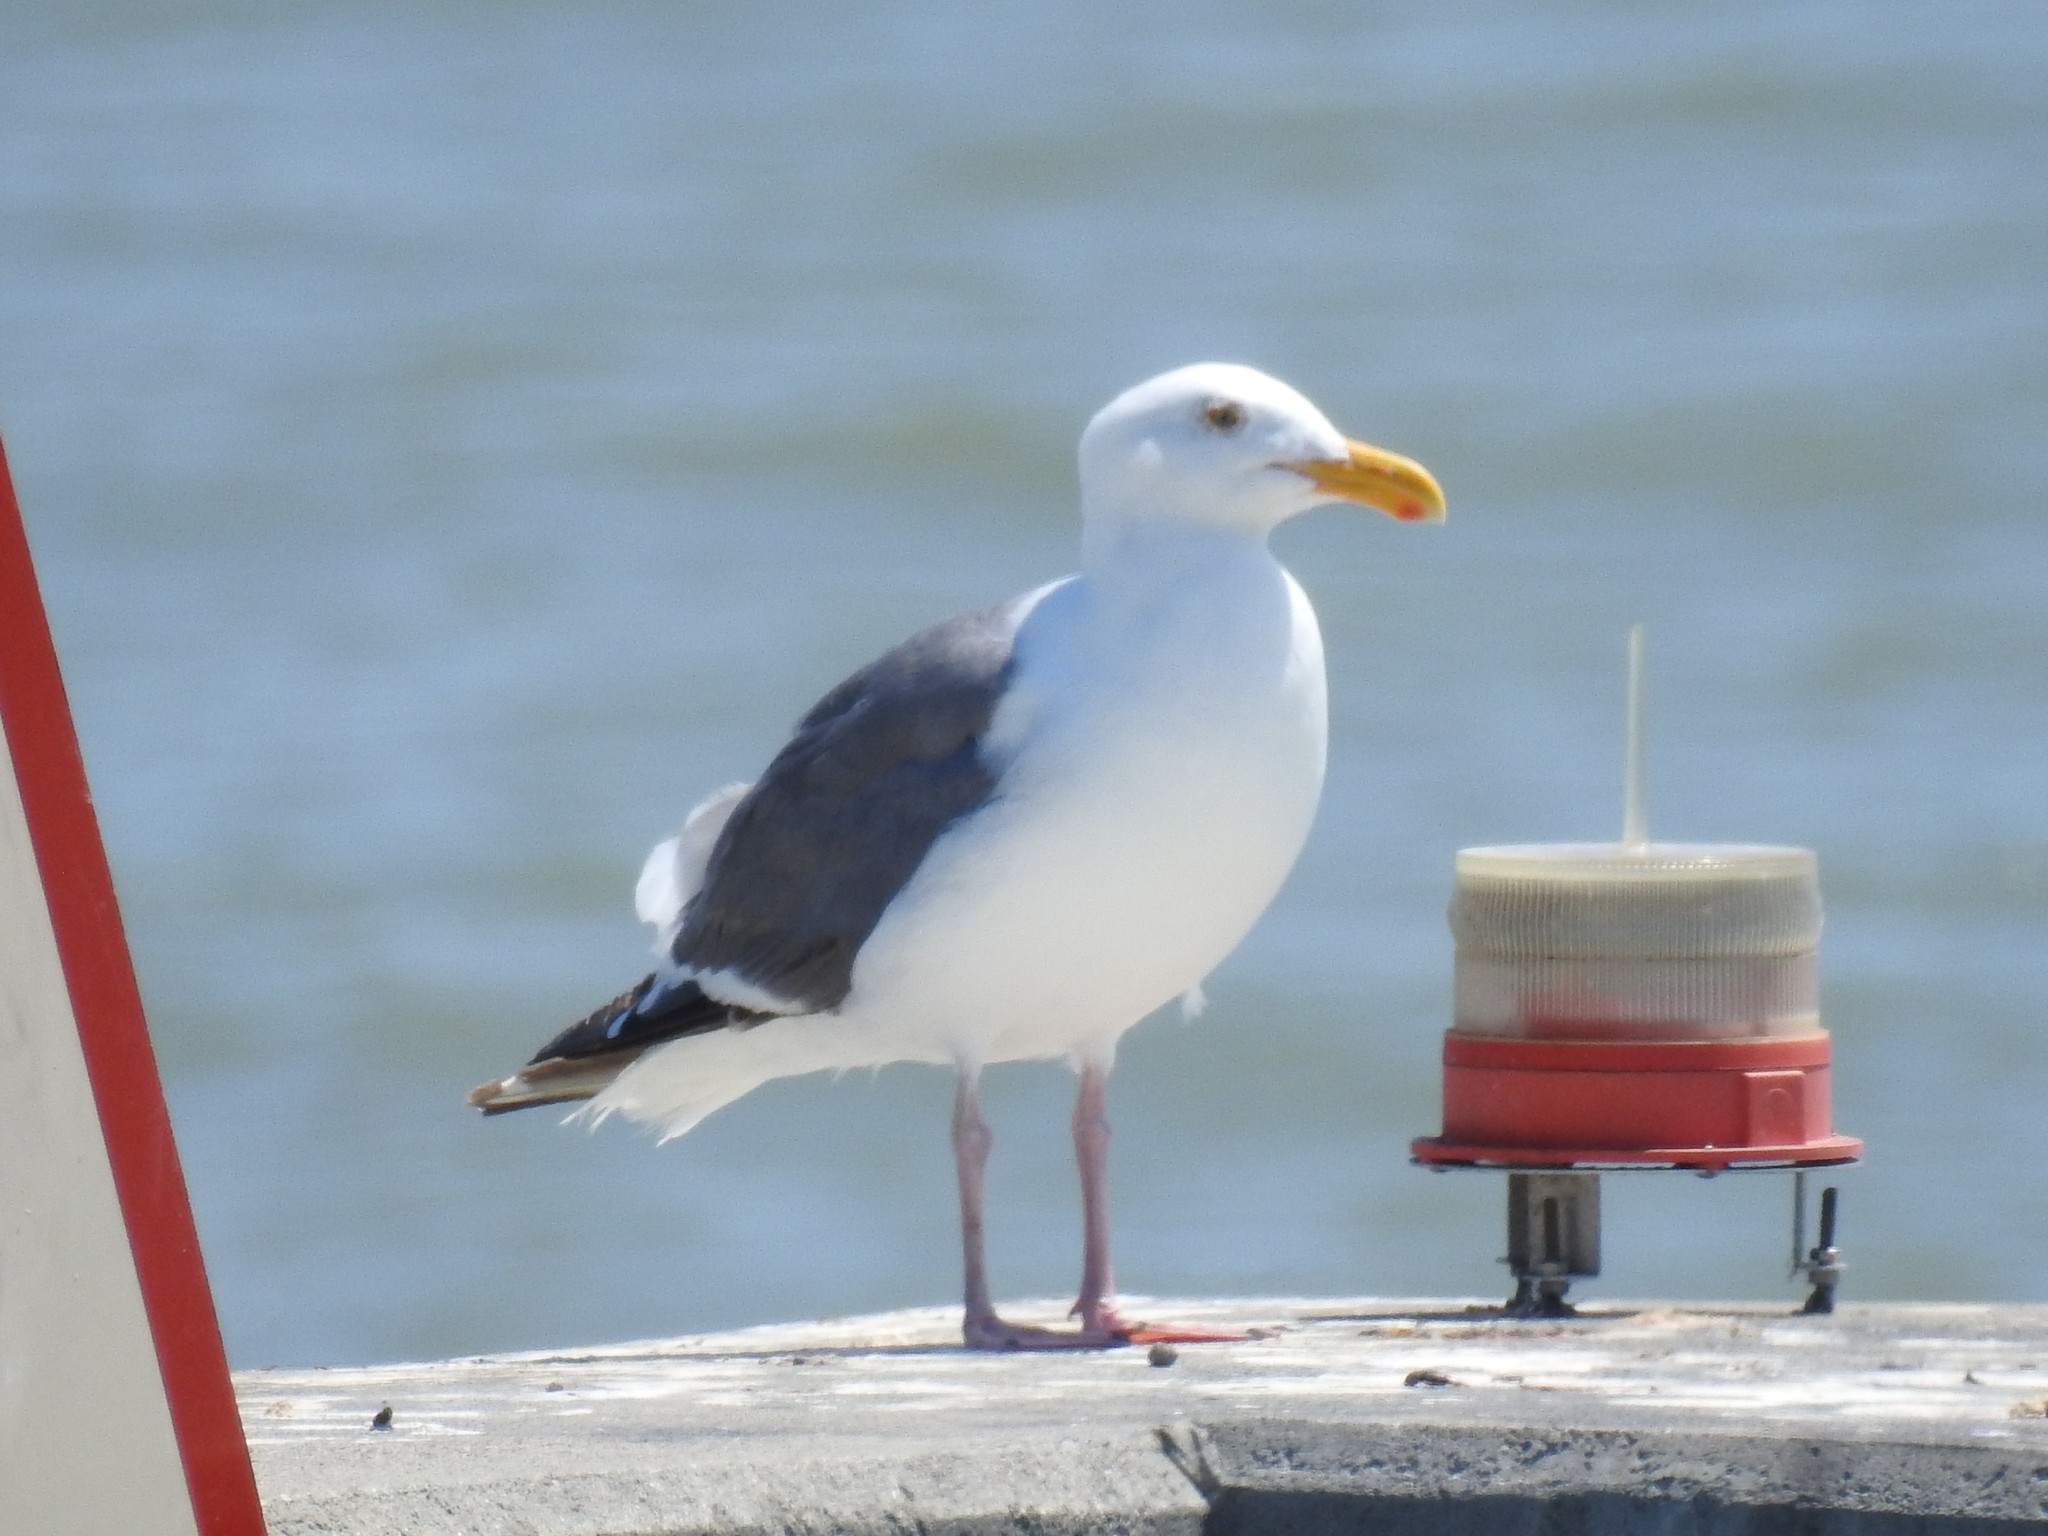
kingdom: Animalia
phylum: Chordata
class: Aves
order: Charadriiformes
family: Laridae
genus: Larus
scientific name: Larus occidentalis
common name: Western gull
